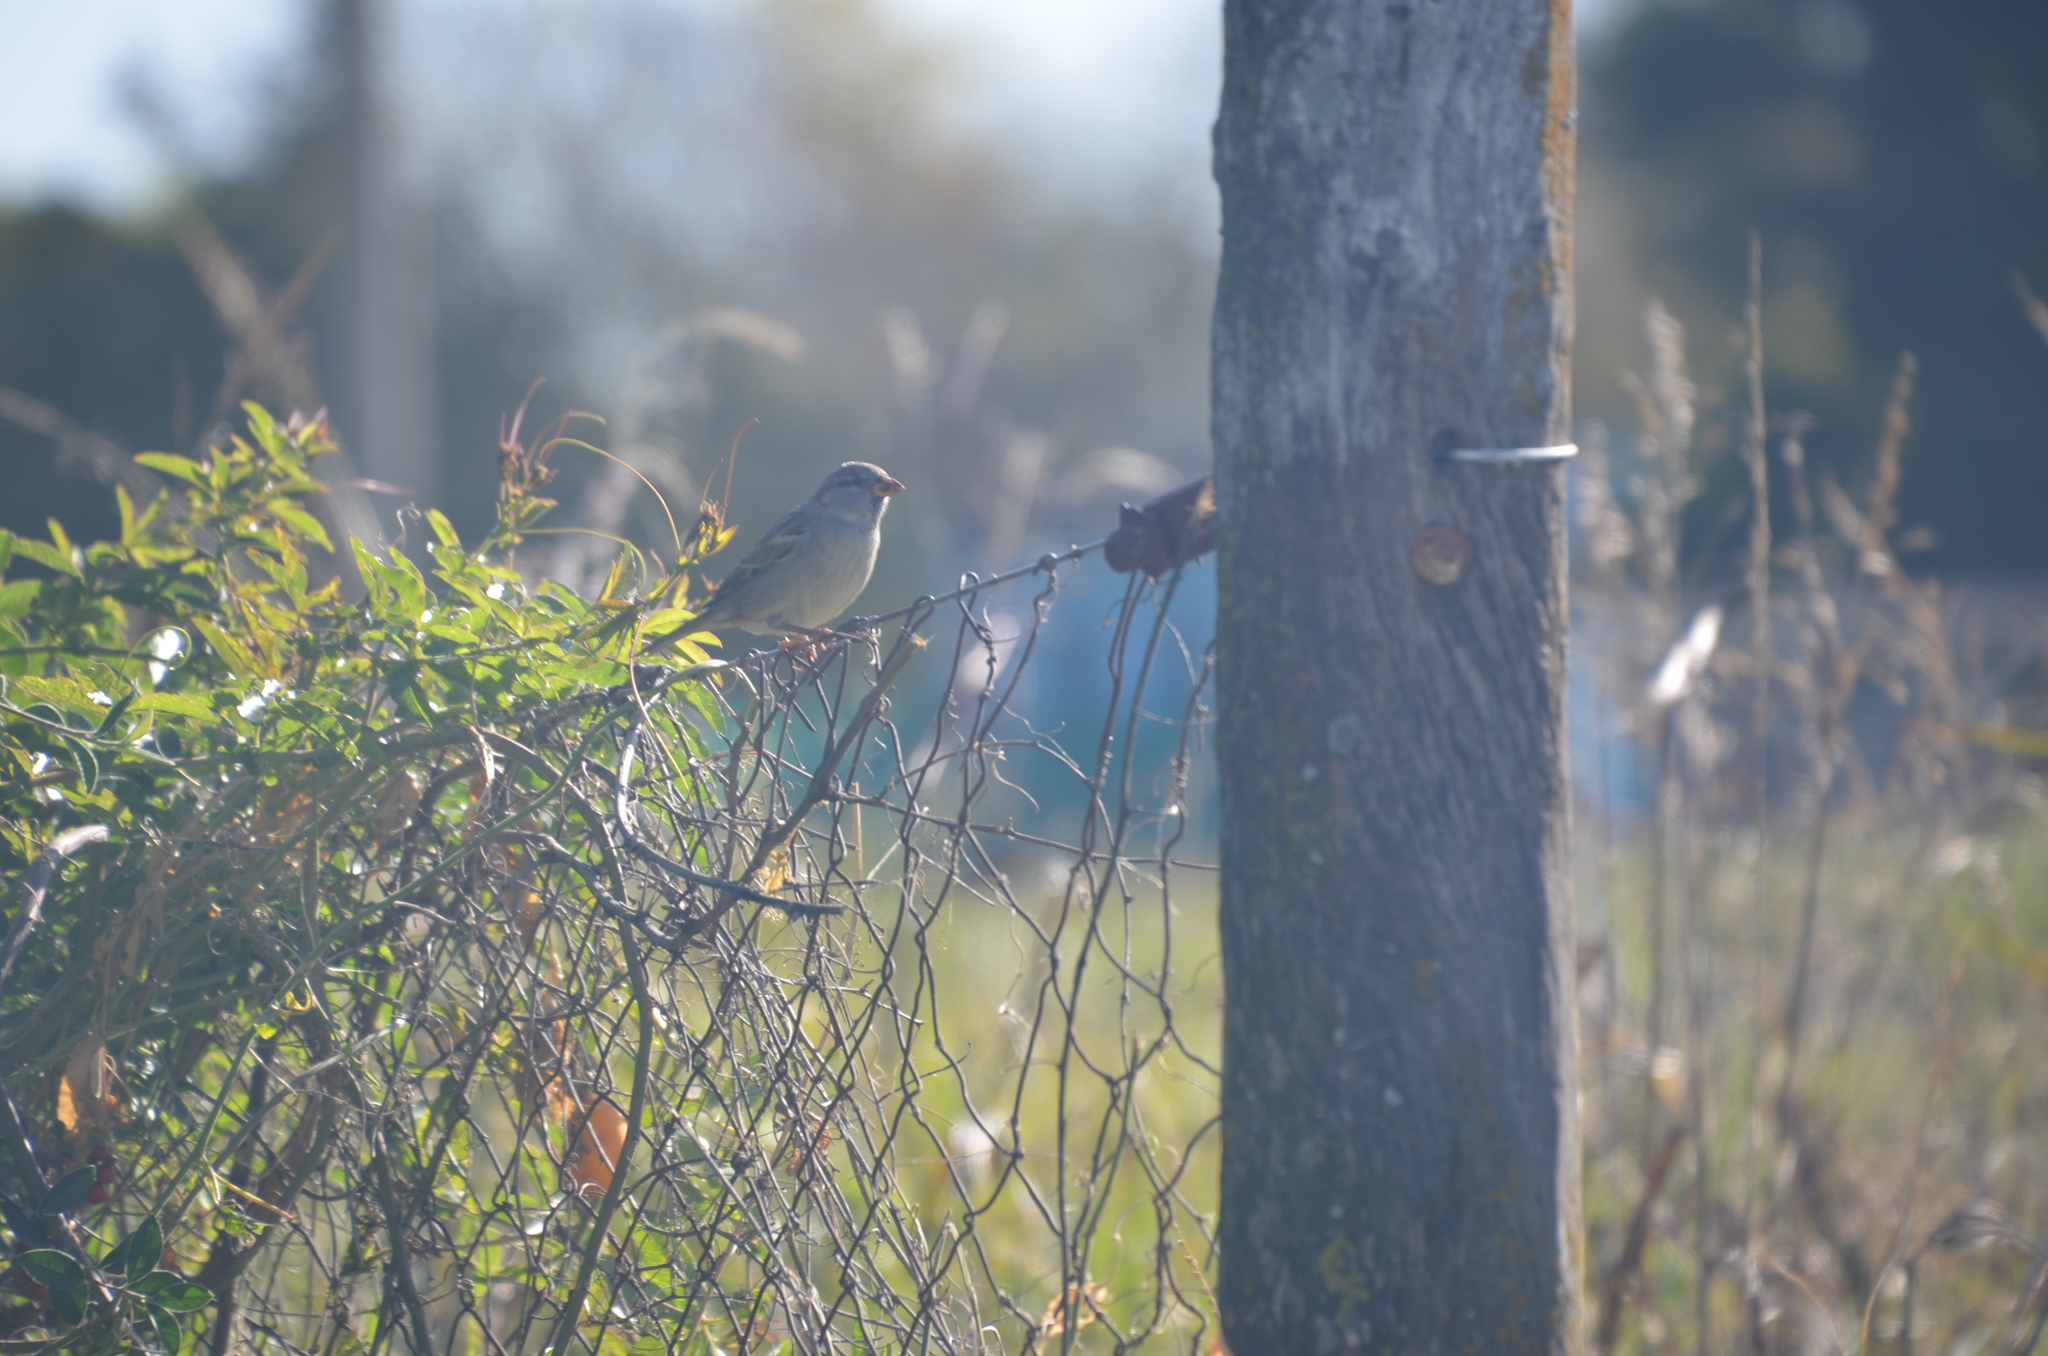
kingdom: Animalia
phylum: Chordata
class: Aves
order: Passeriformes
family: Passeridae
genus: Passer
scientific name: Passer domesticus
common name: House sparrow
